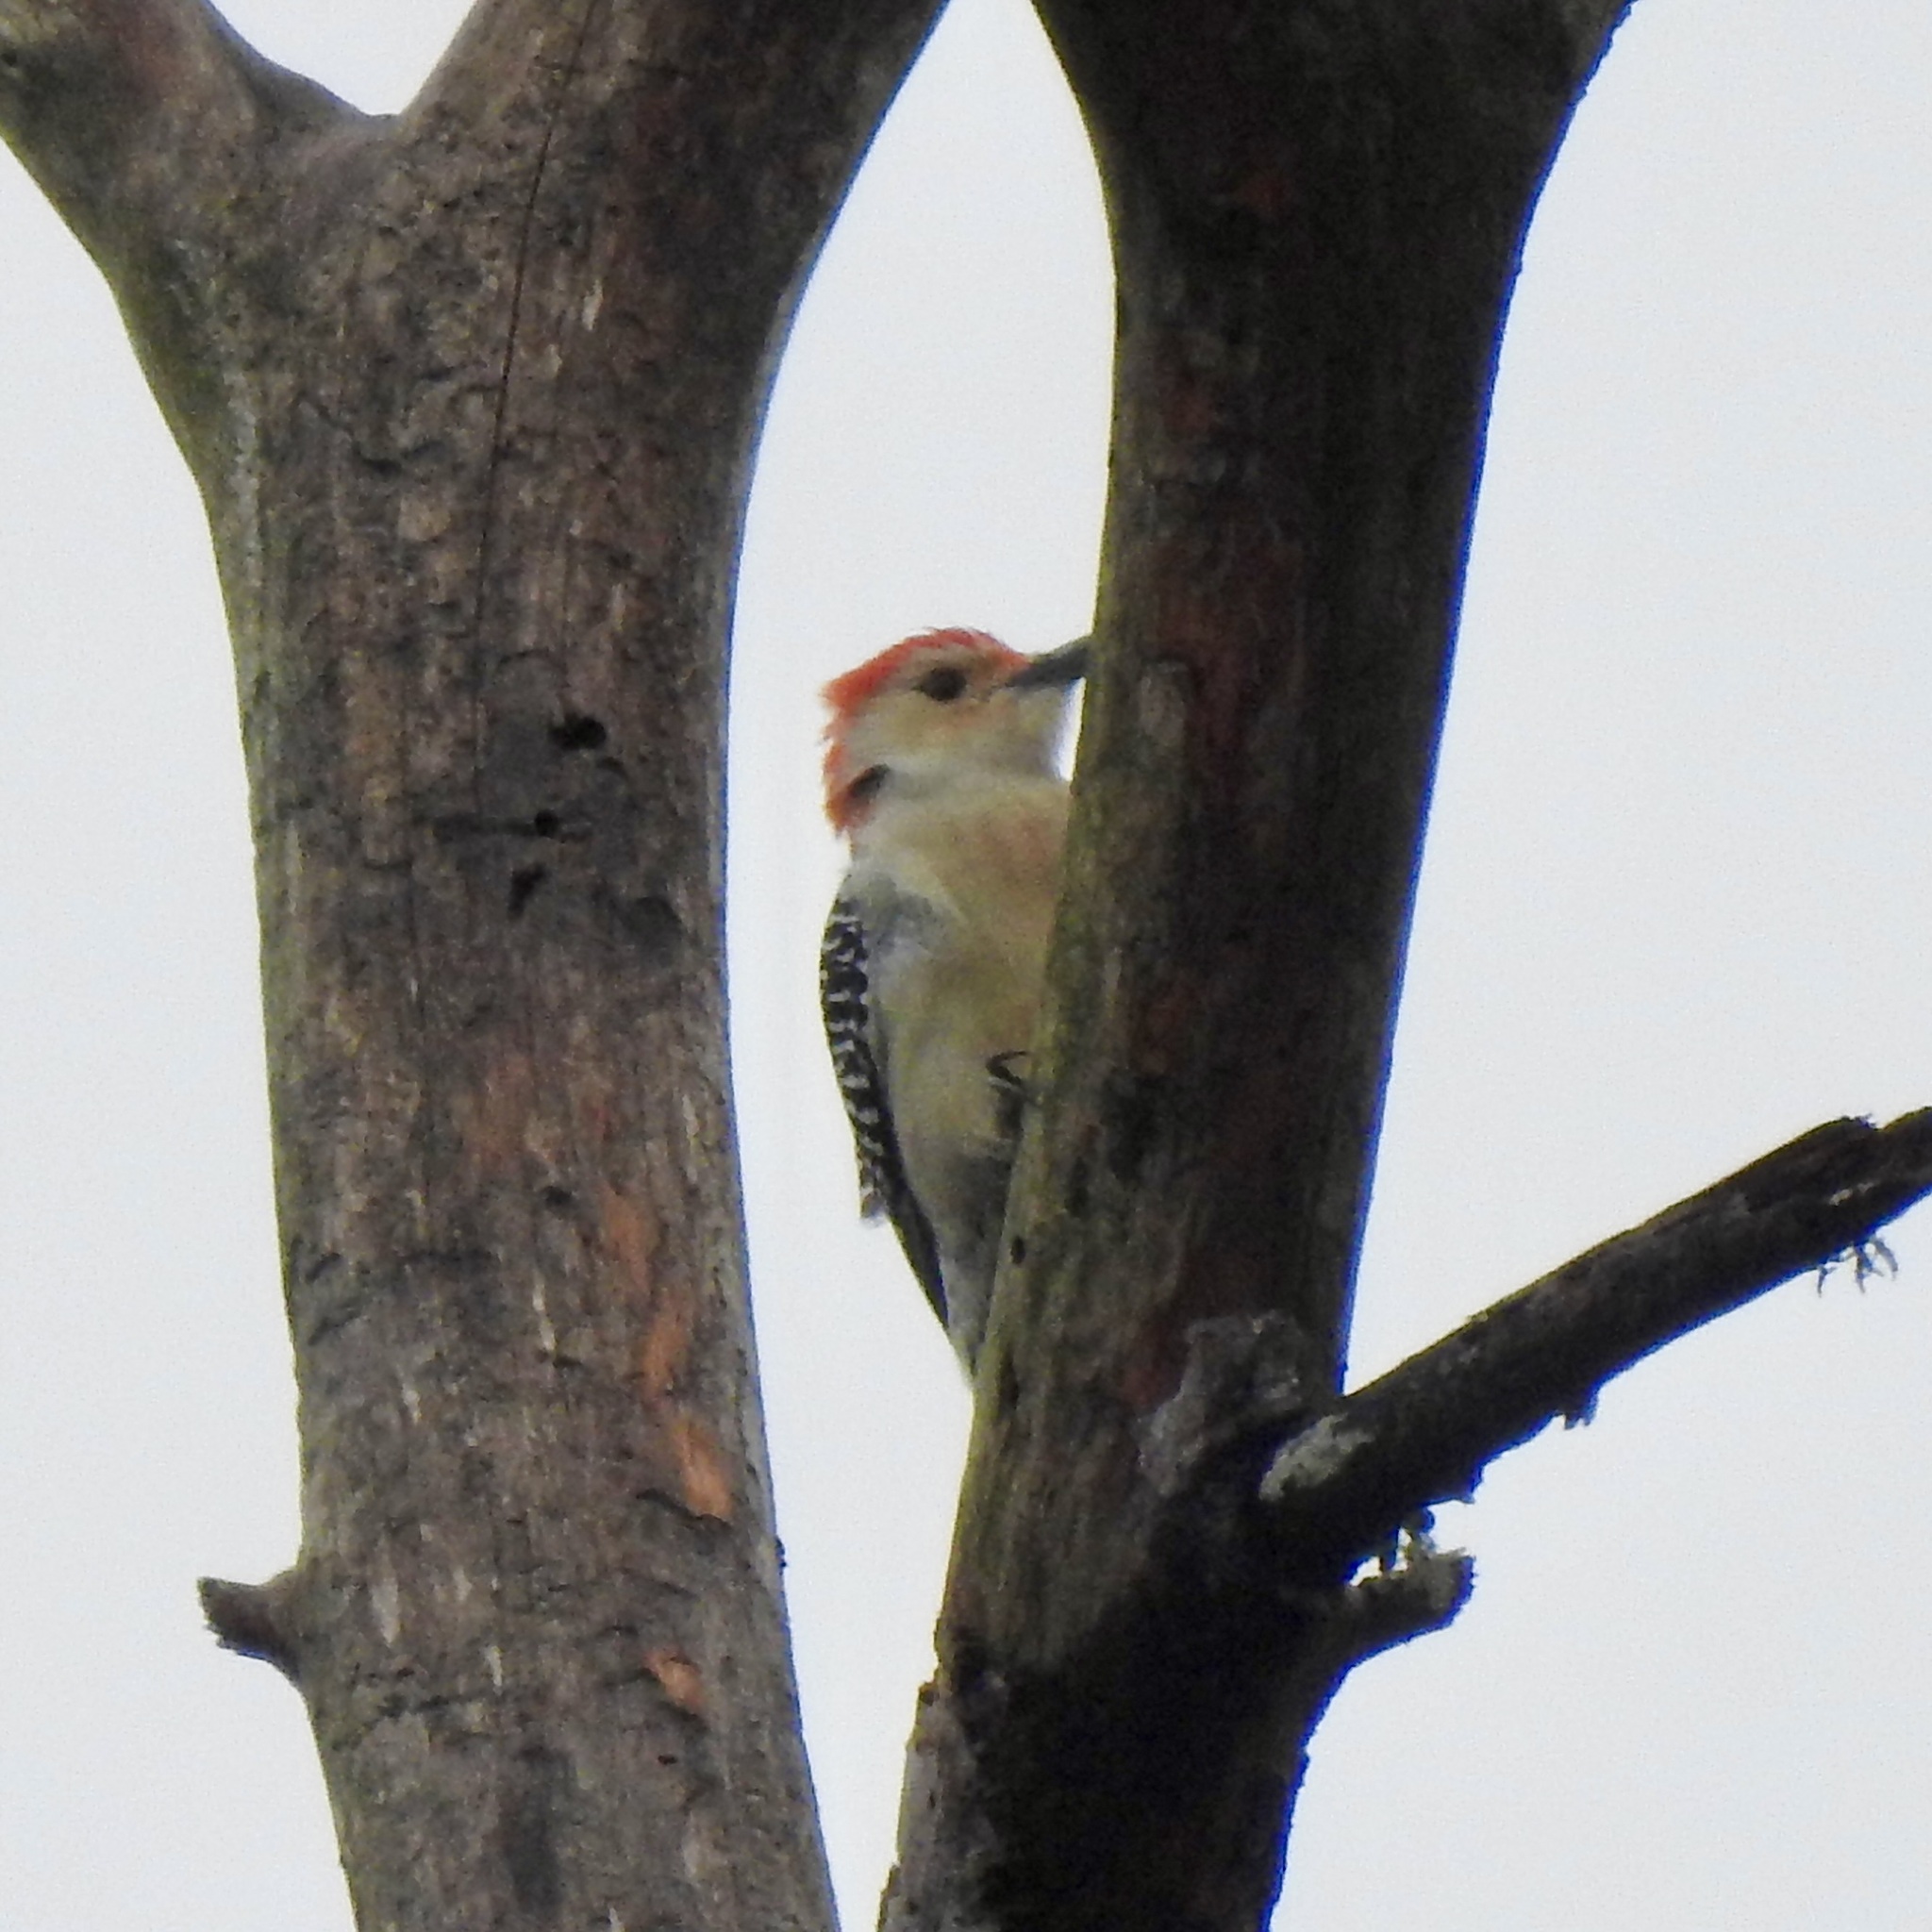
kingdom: Animalia
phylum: Chordata
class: Aves
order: Piciformes
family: Picidae
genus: Melanerpes
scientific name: Melanerpes carolinus
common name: Red-bellied woodpecker
